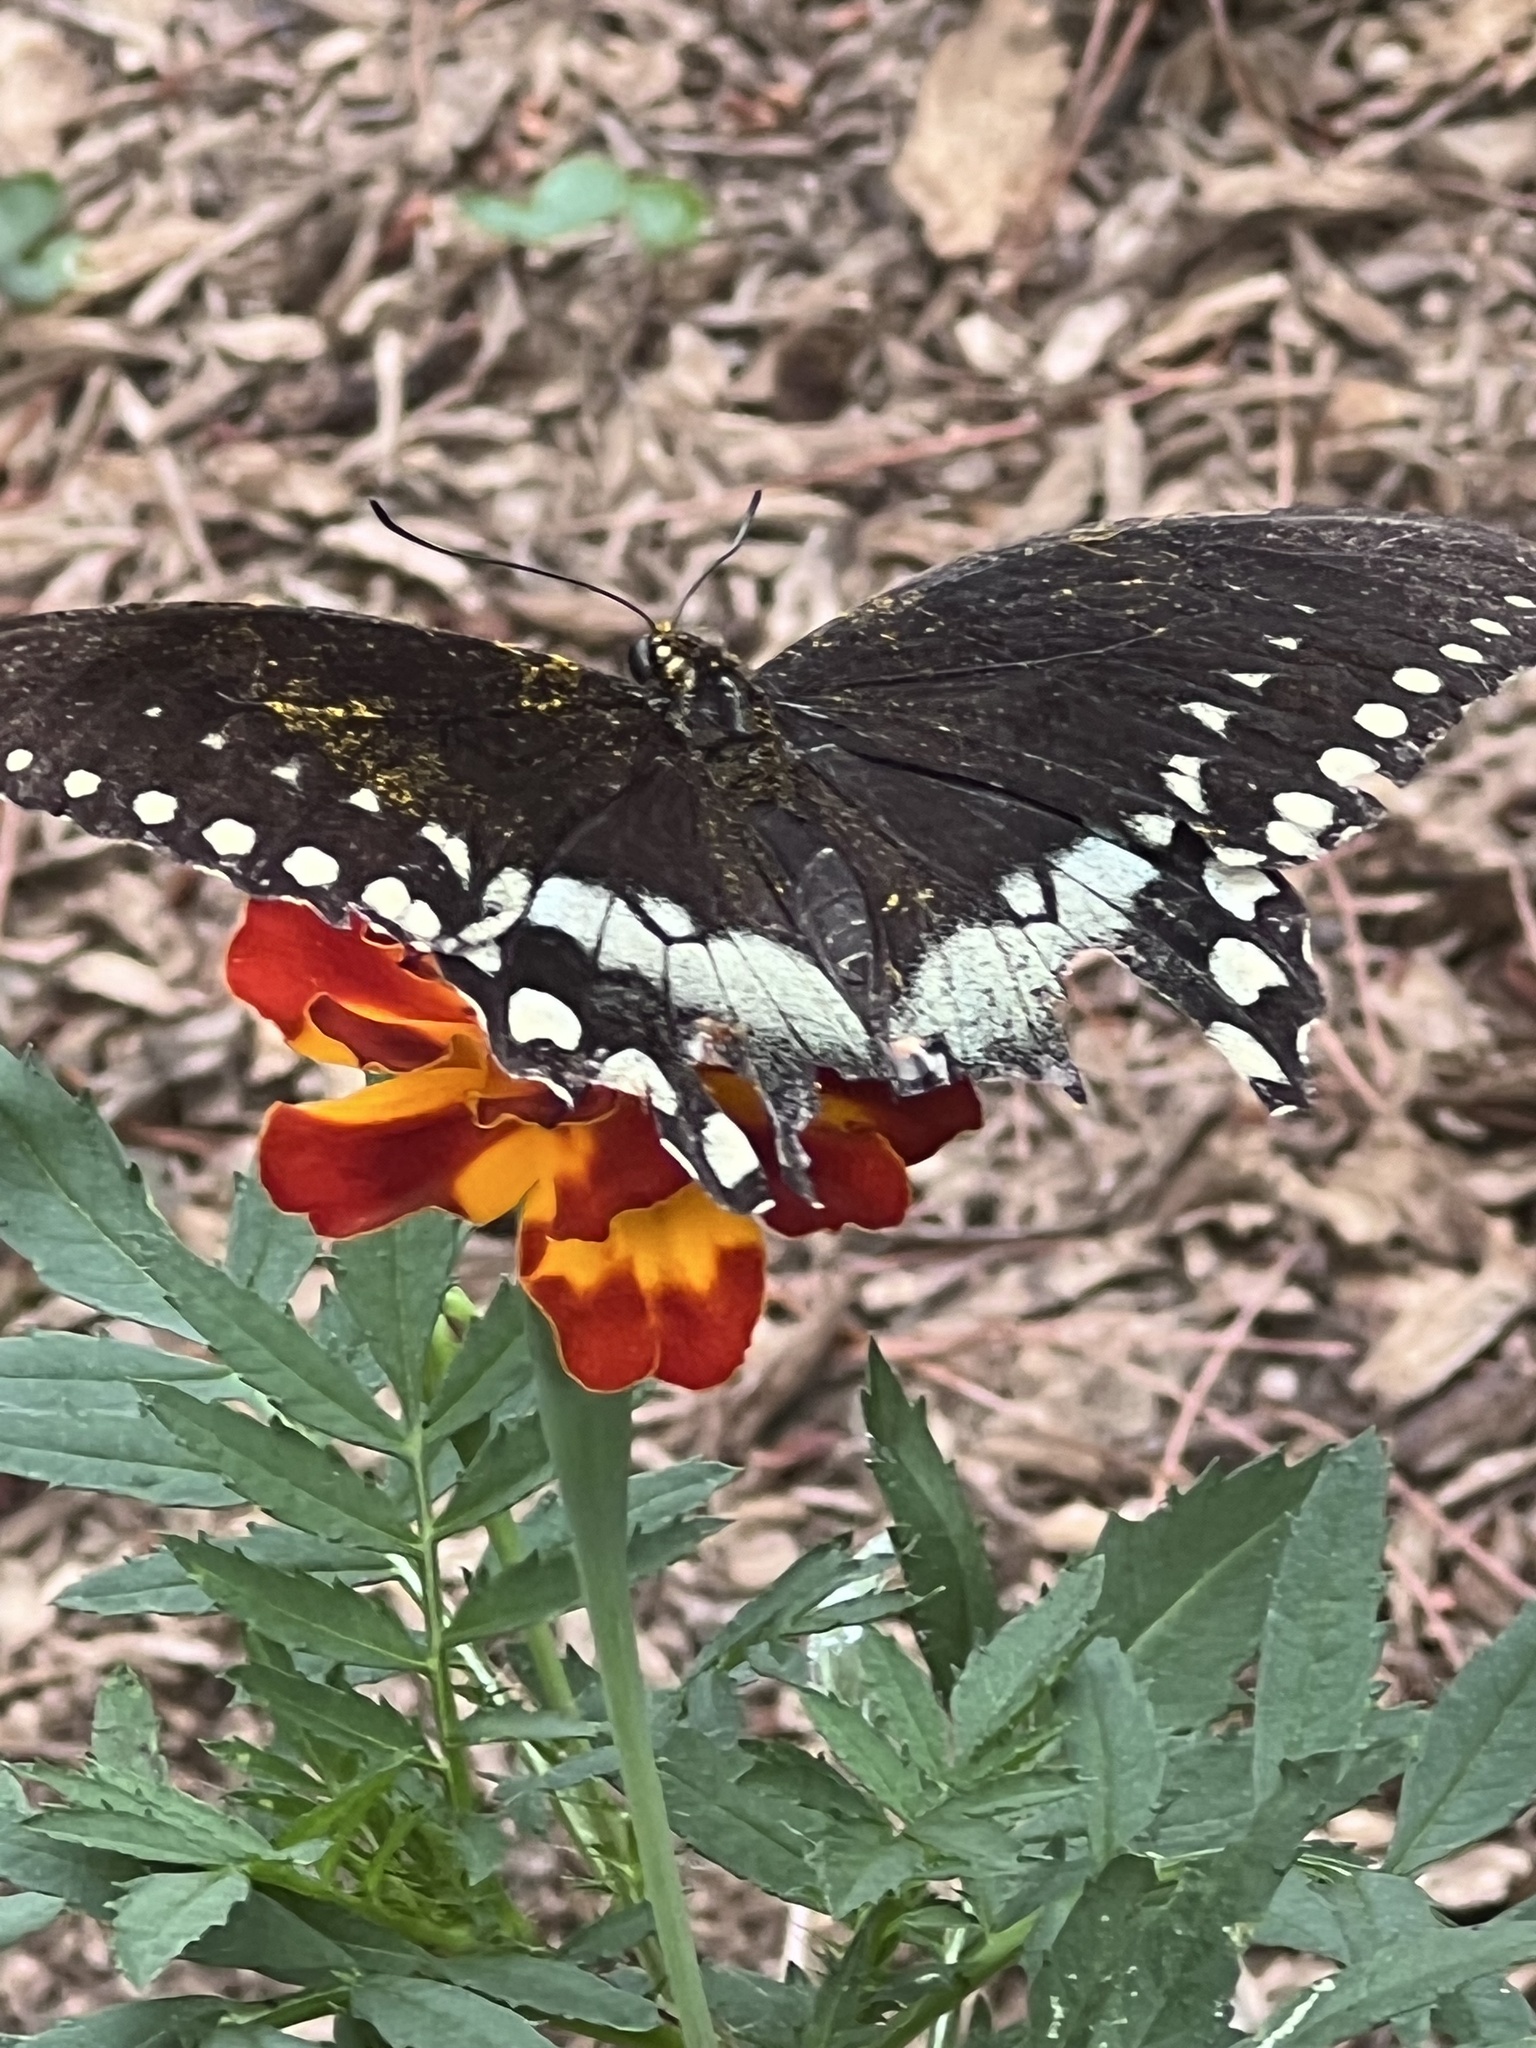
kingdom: Animalia
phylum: Arthropoda
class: Insecta
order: Lepidoptera
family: Papilionidae
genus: Papilio
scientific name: Papilio troilus
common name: Spicebush swallowtail
